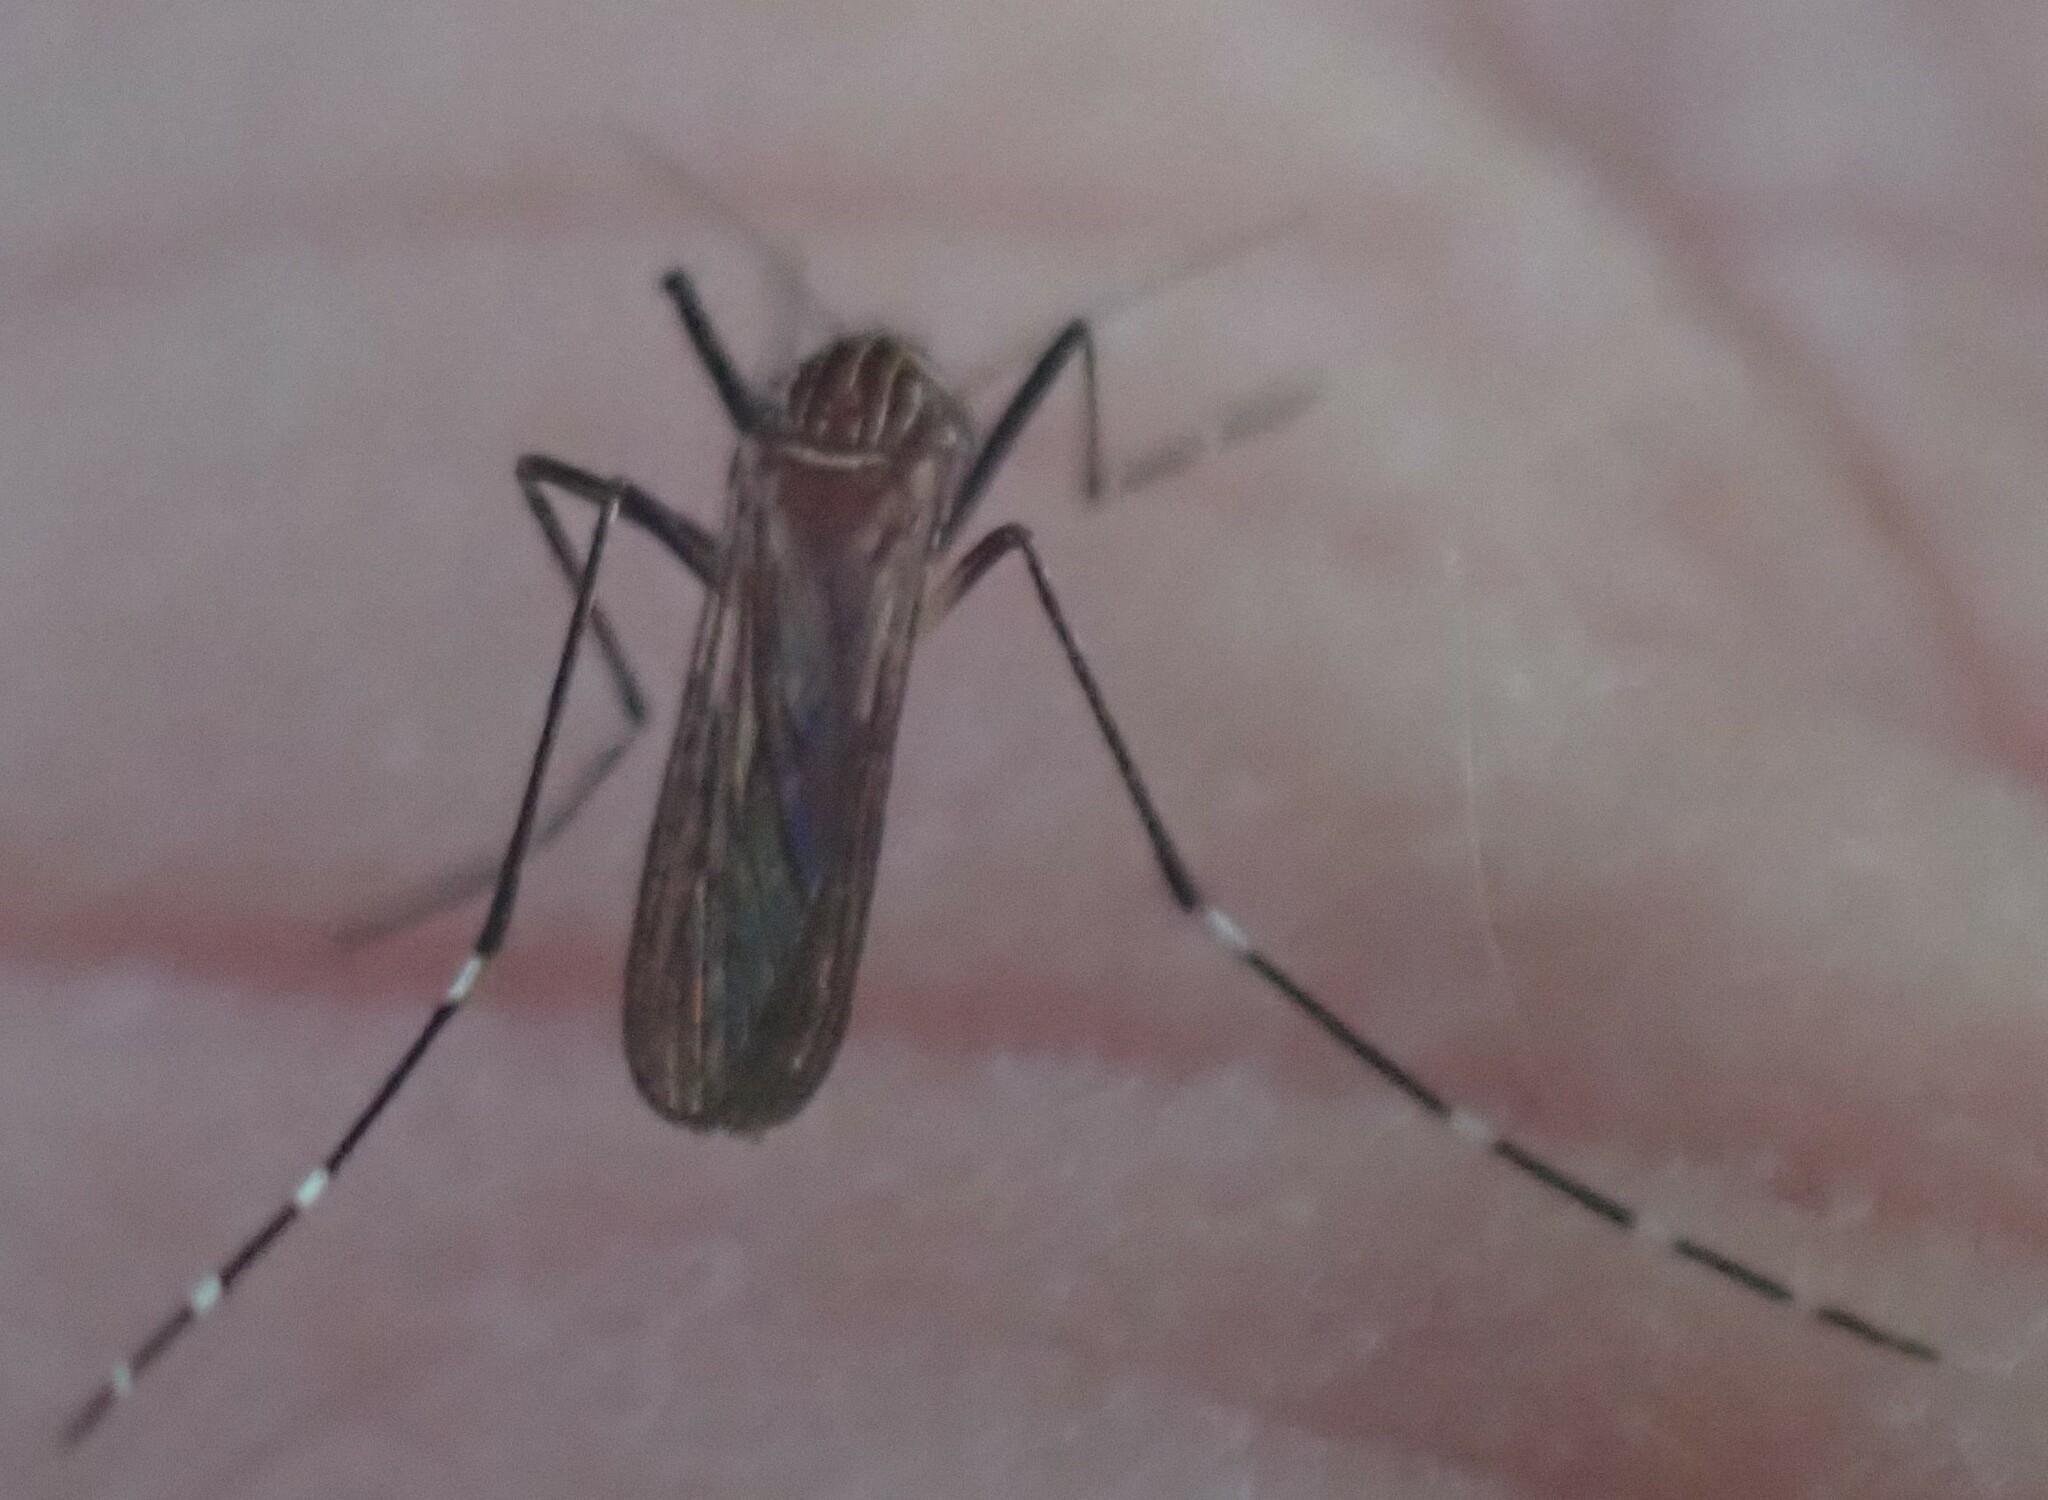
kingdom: Animalia
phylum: Arthropoda
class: Insecta
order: Diptera
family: Culicidae
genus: Aedes
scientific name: Aedes notoscriptus
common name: Australian backyard mosquito
